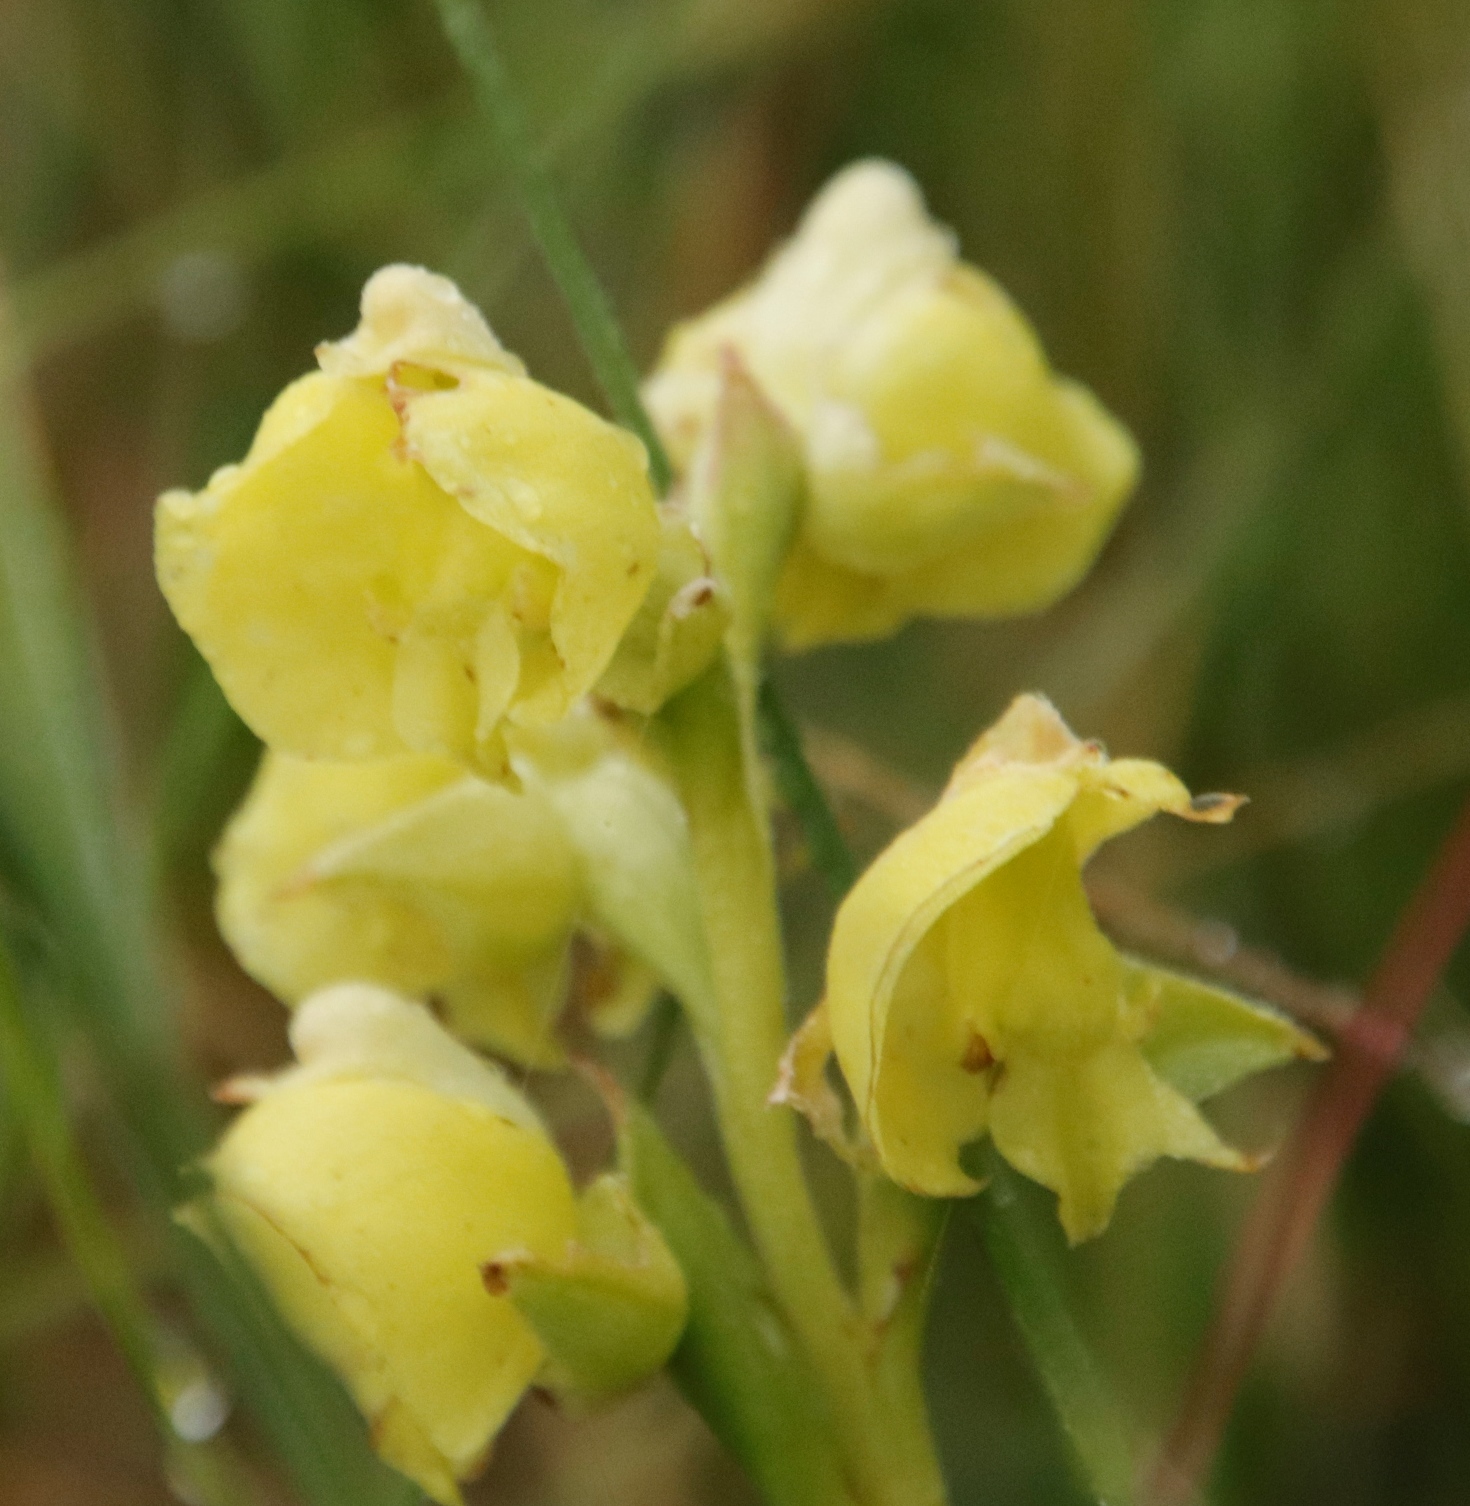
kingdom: Plantae
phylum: Tracheophyta
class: Liliopsida
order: Asparagales
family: Orchidaceae
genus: Pterygodium
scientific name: Pterygodium catholicum
